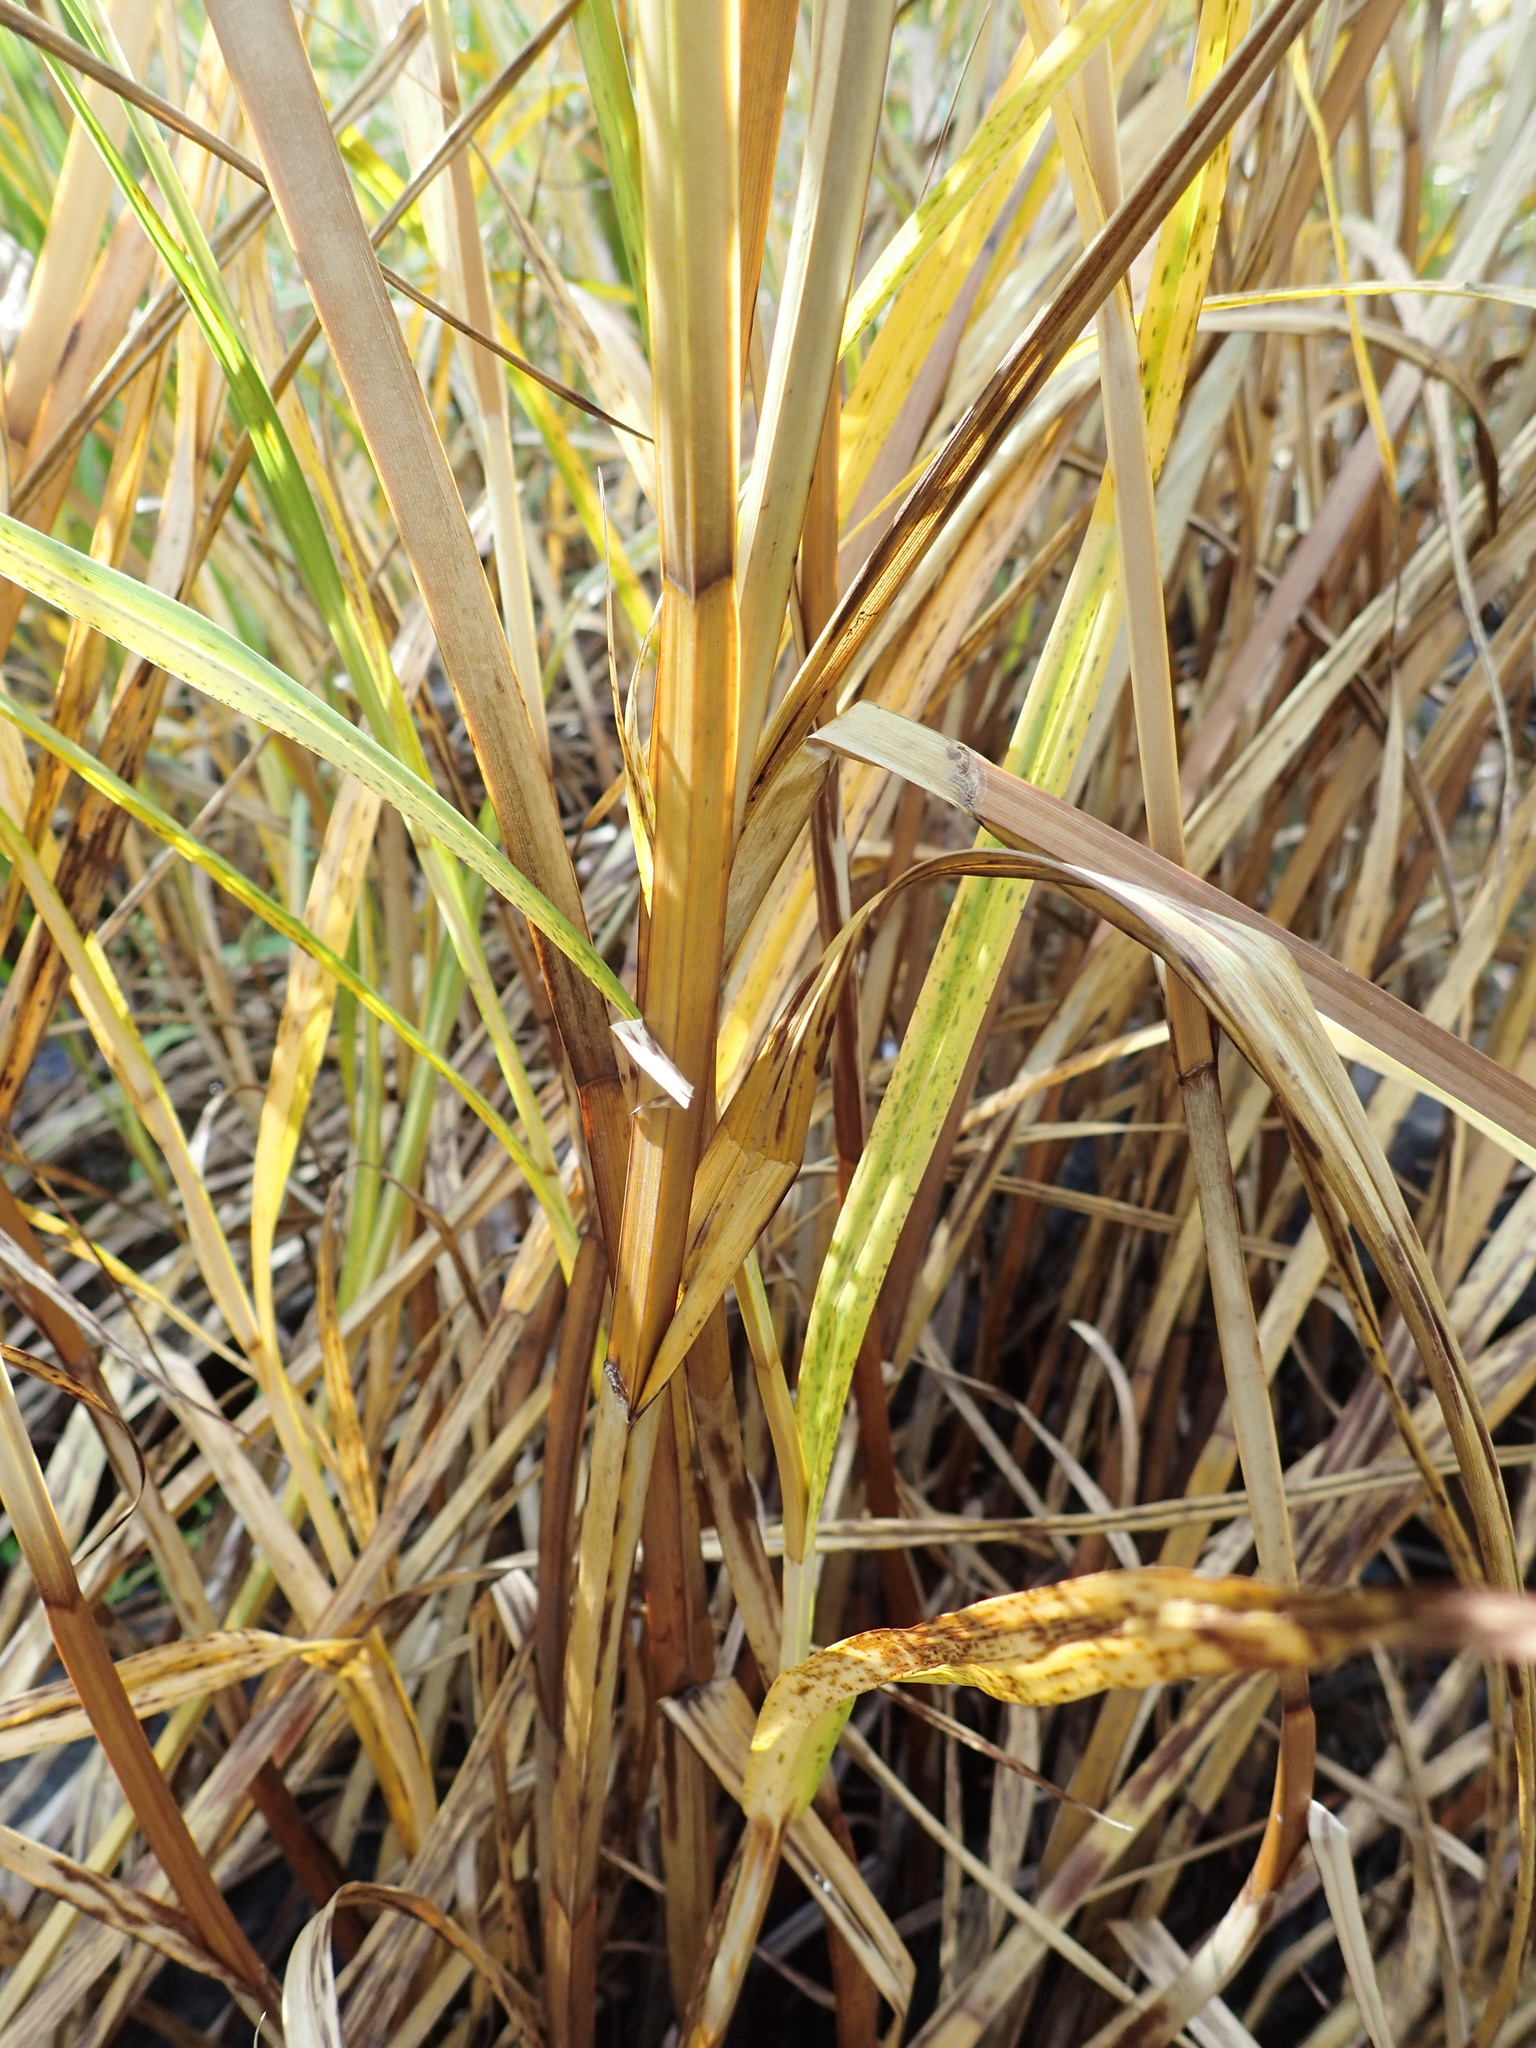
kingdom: Plantae
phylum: Tracheophyta
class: Liliopsida
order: Poales
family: Cyperaceae
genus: Bolboschoenus
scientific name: Bolboschoenus fluviatilis
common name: River bulrush
